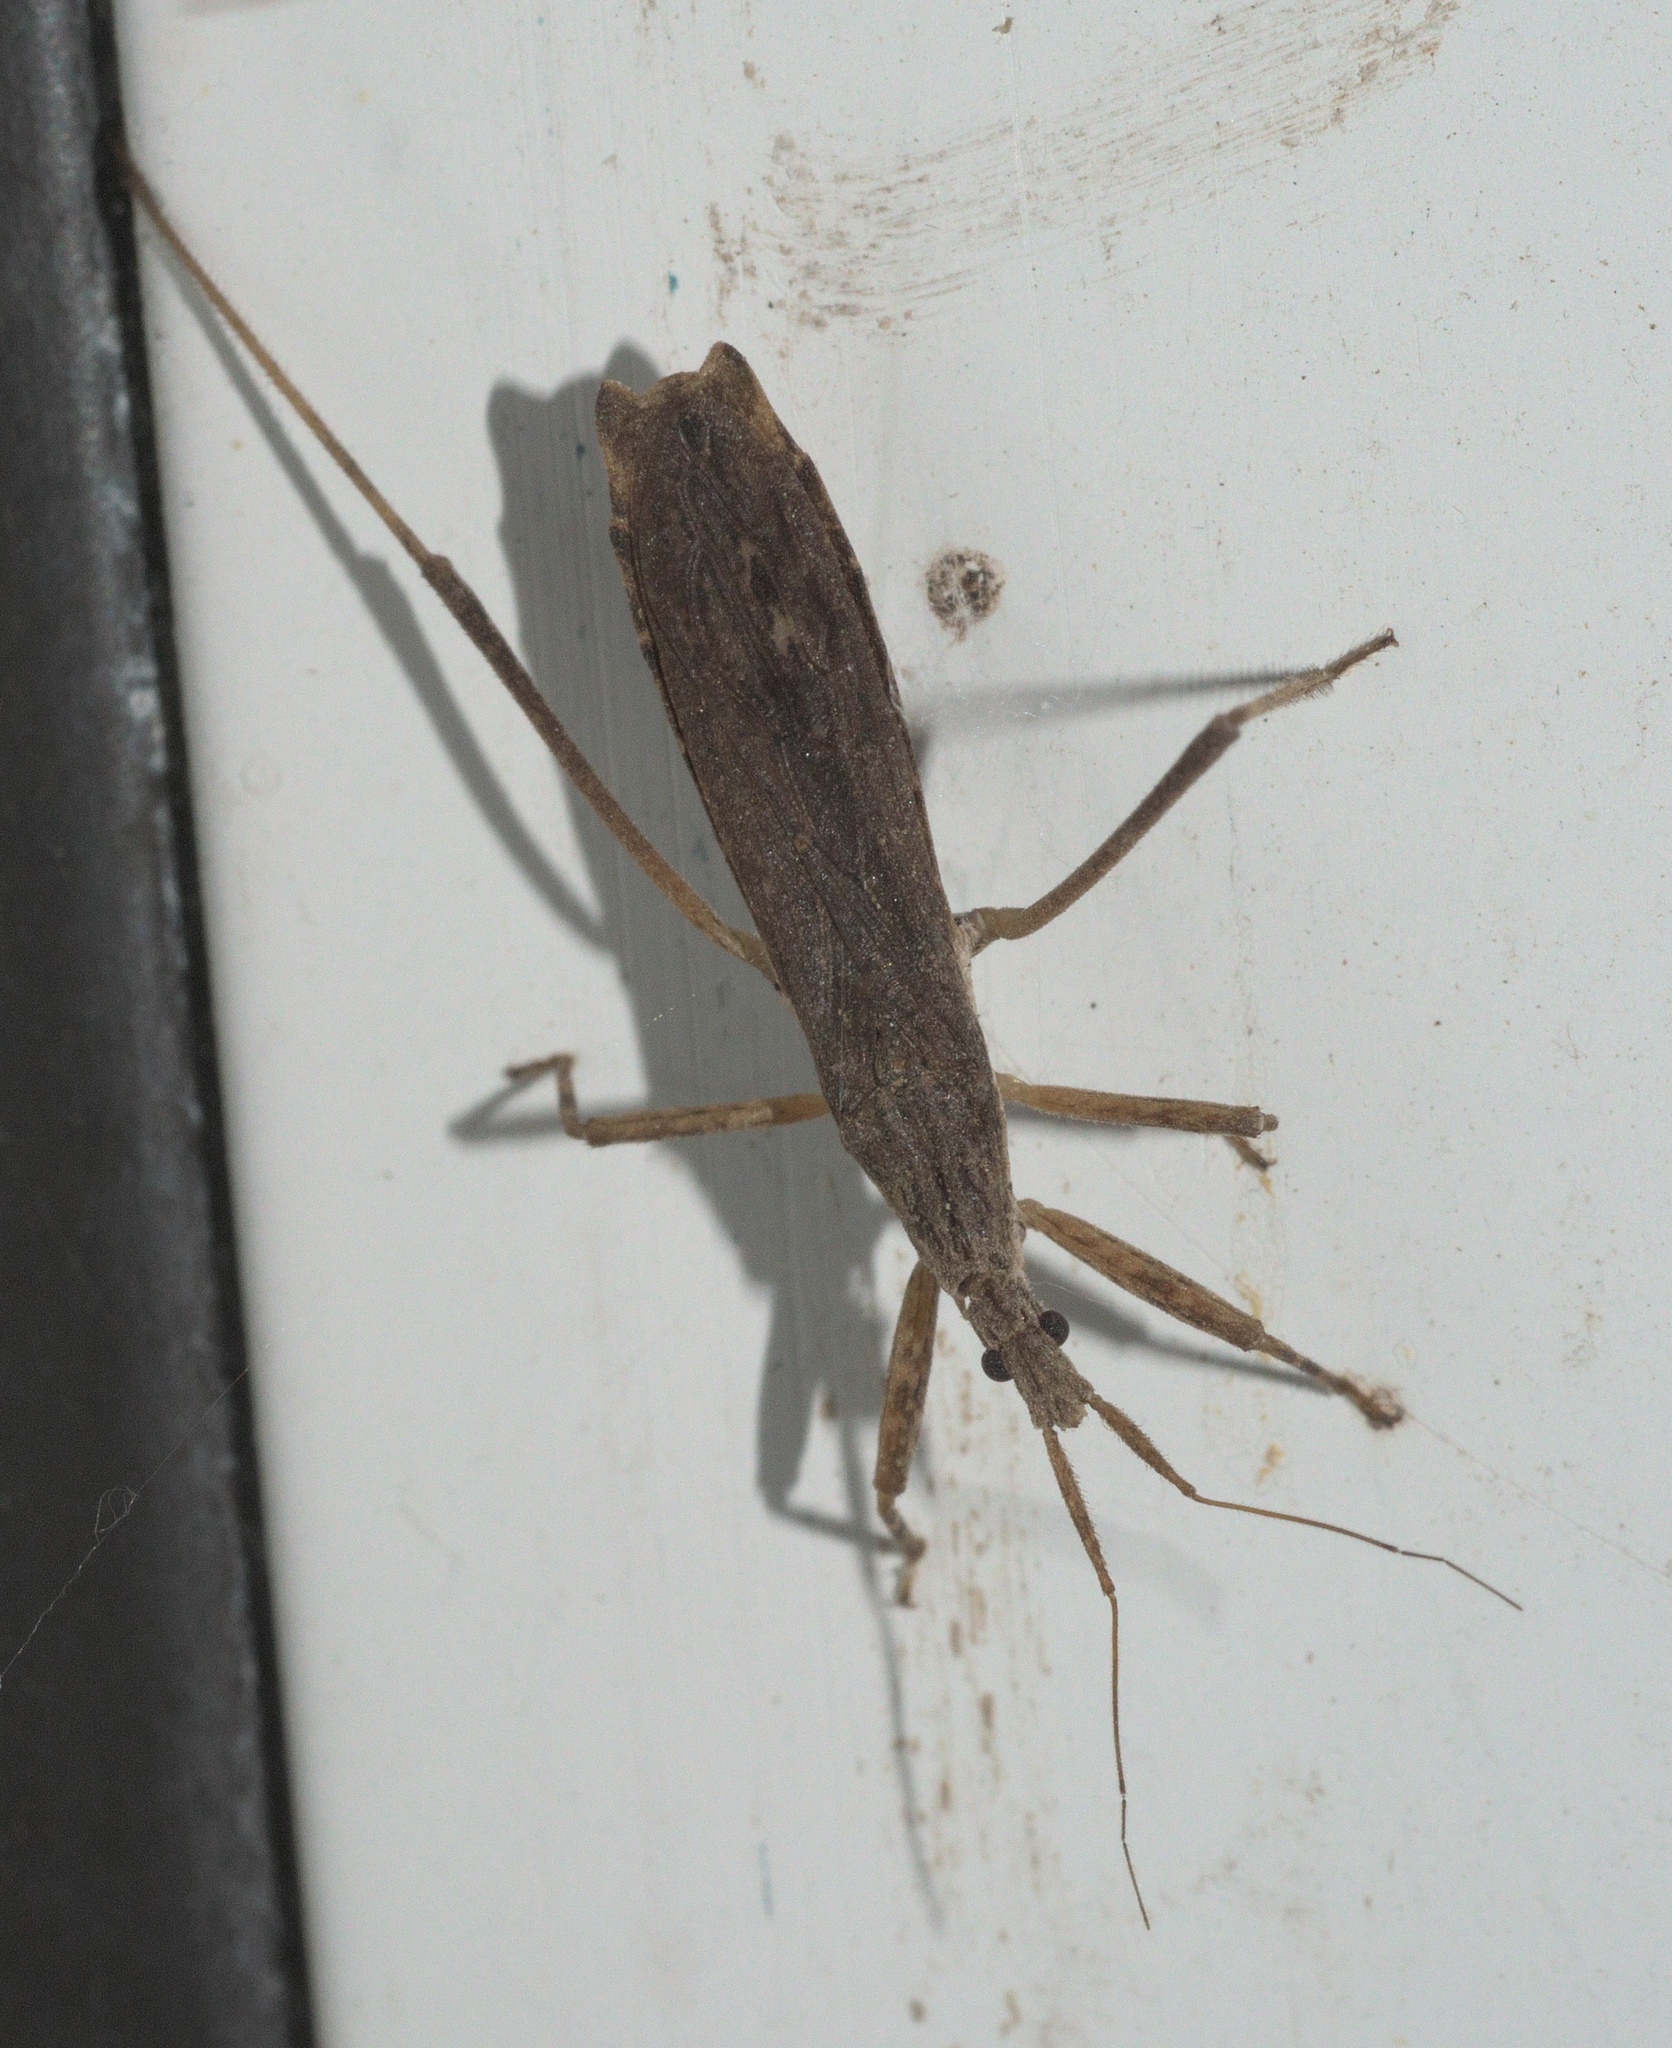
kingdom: Animalia
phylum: Arthropoda
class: Insecta
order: Hemiptera
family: Reduviidae
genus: Pygolampis
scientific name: Pygolampis pectoralis
